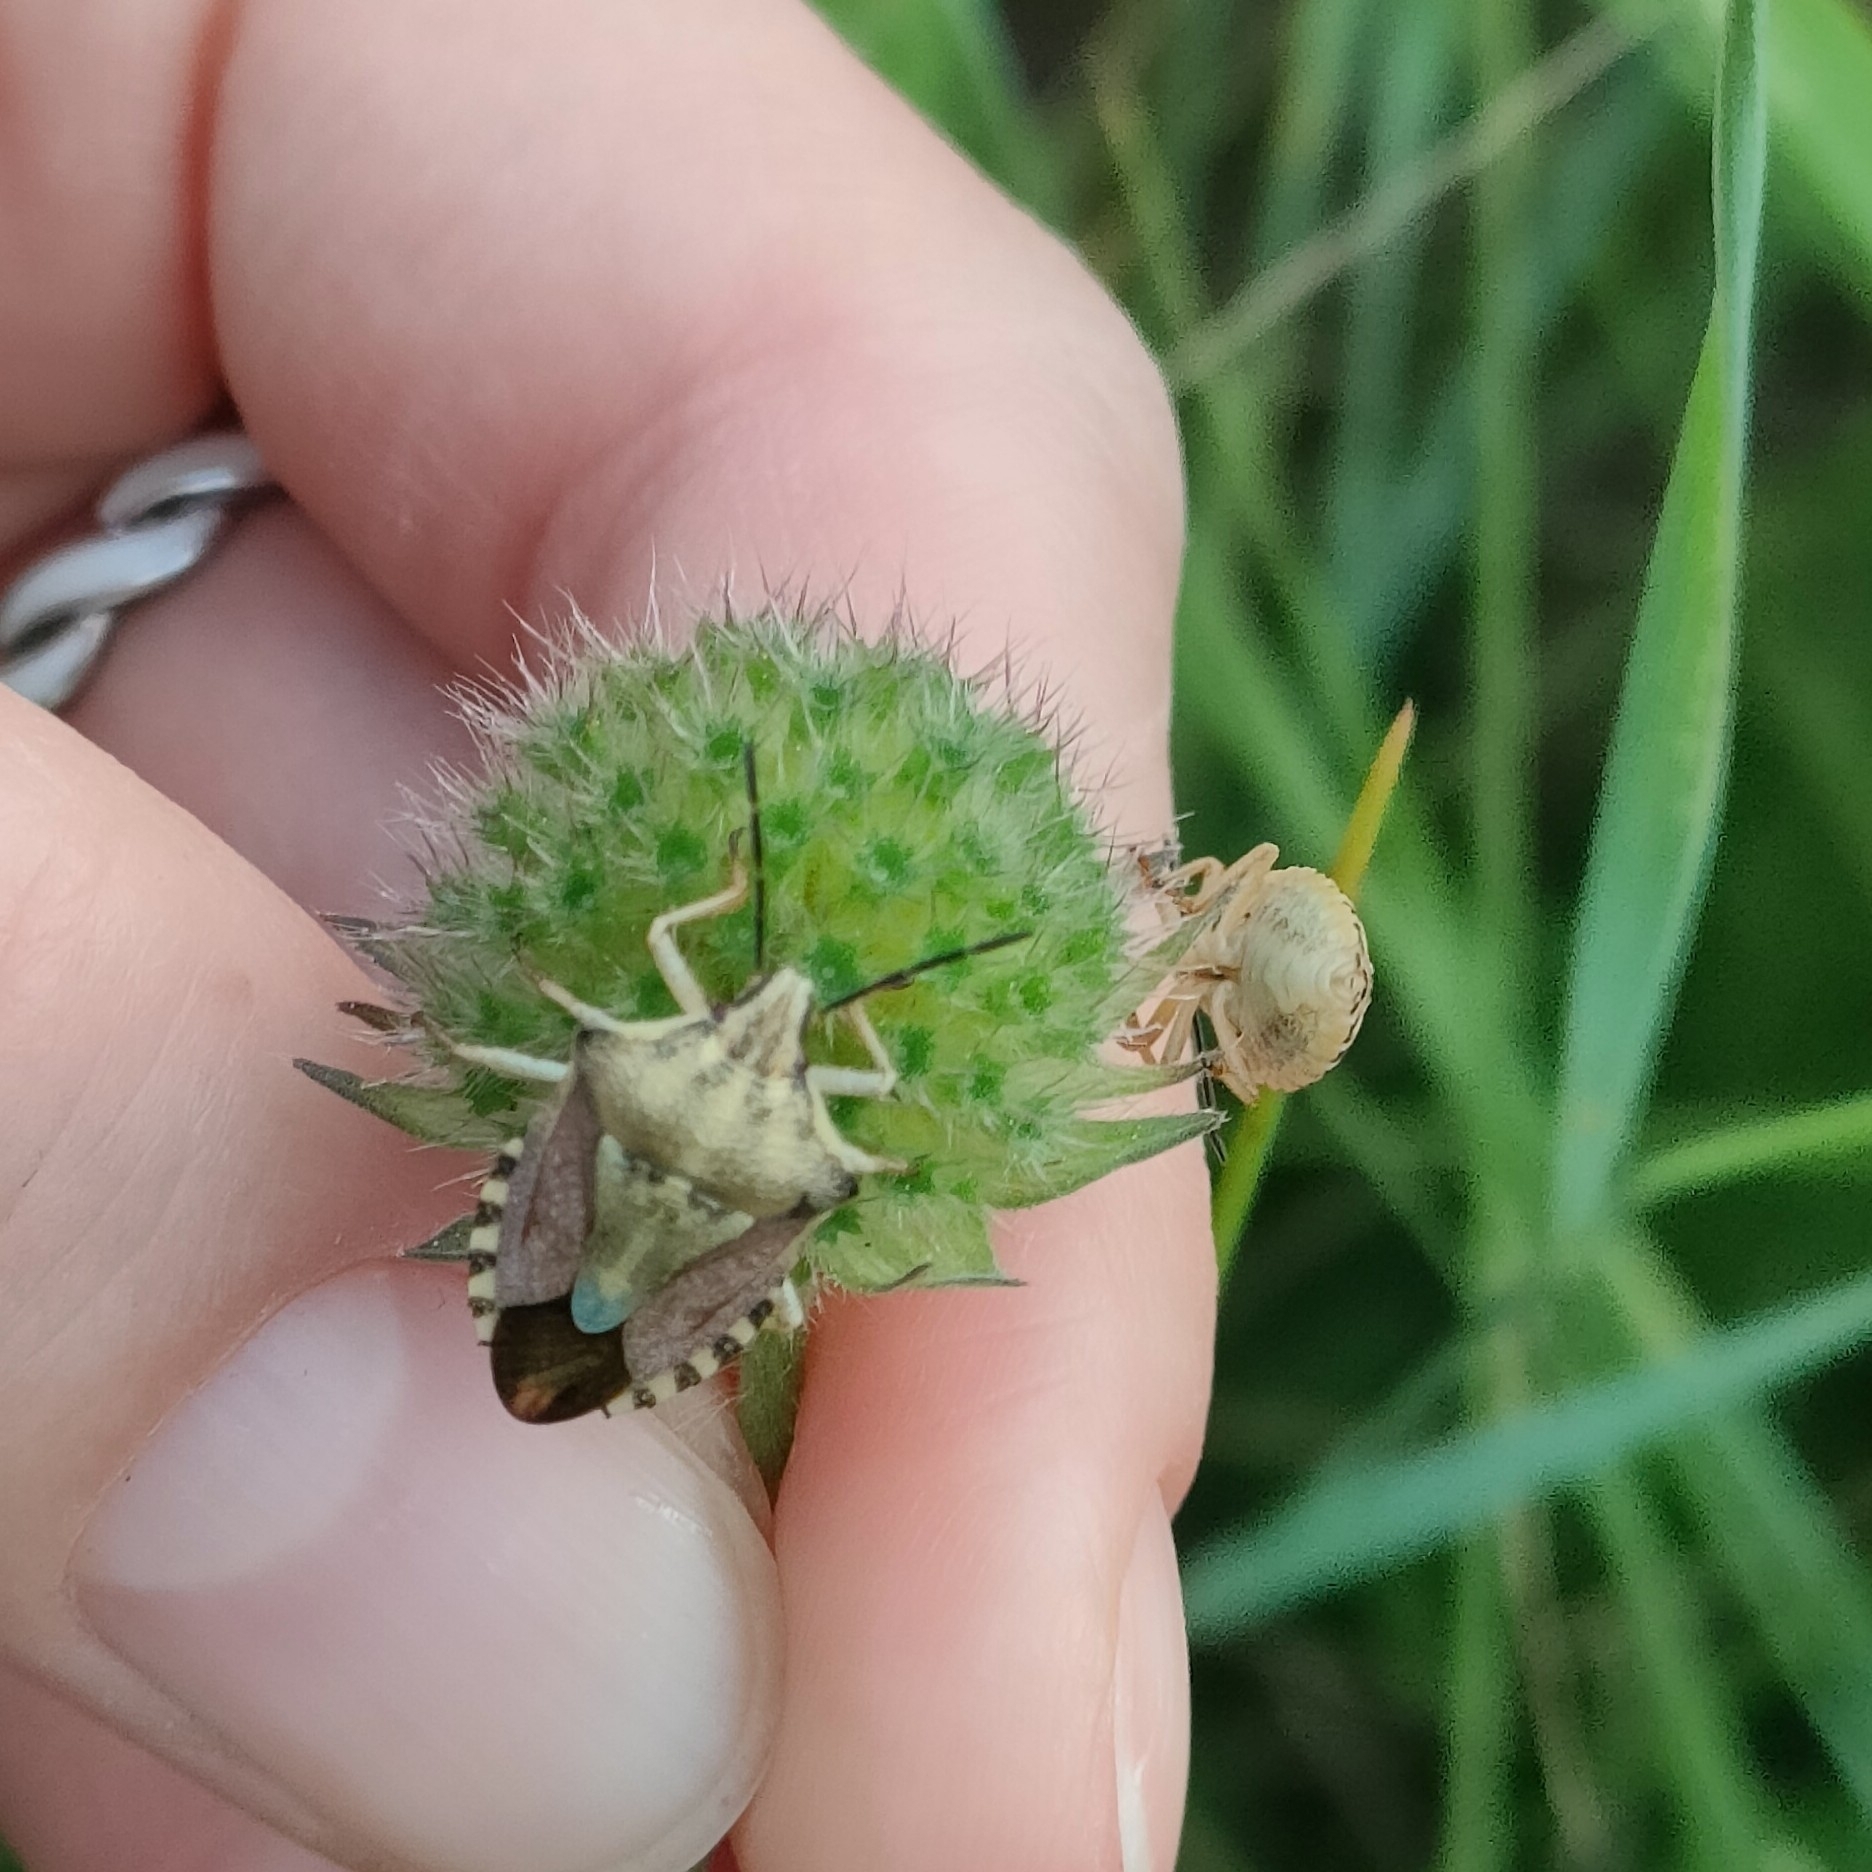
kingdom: Animalia
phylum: Arthropoda
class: Insecta
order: Hemiptera
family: Pentatomidae
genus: Carpocoris
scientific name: Carpocoris purpureipennis
